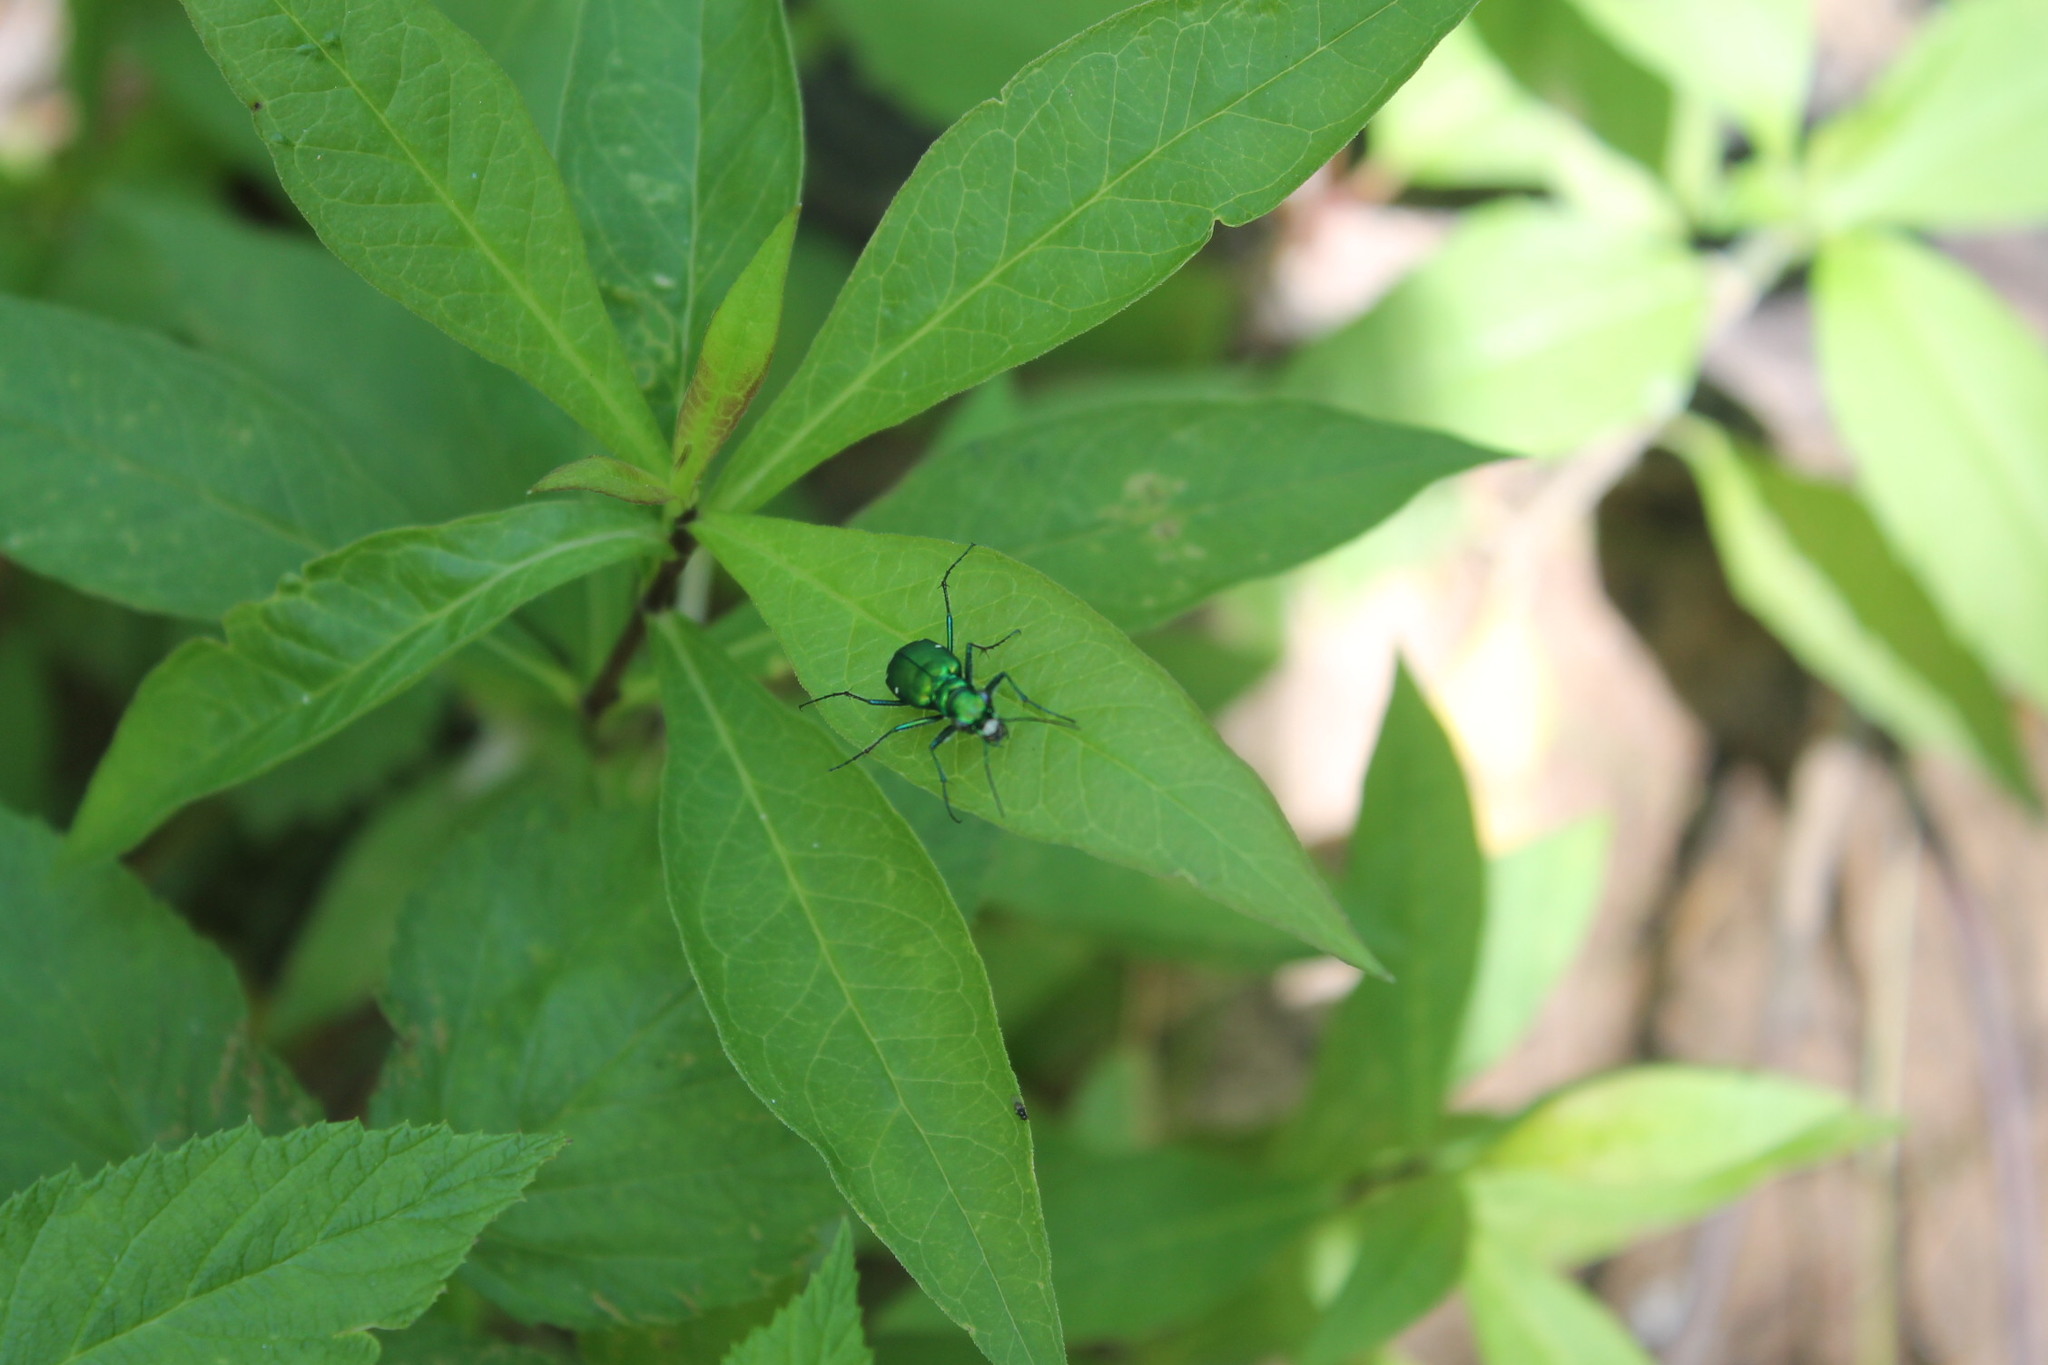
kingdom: Animalia
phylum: Arthropoda
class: Insecta
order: Coleoptera
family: Carabidae
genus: Cicindela
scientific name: Cicindela sexguttata
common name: Six-spotted tiger beetle
